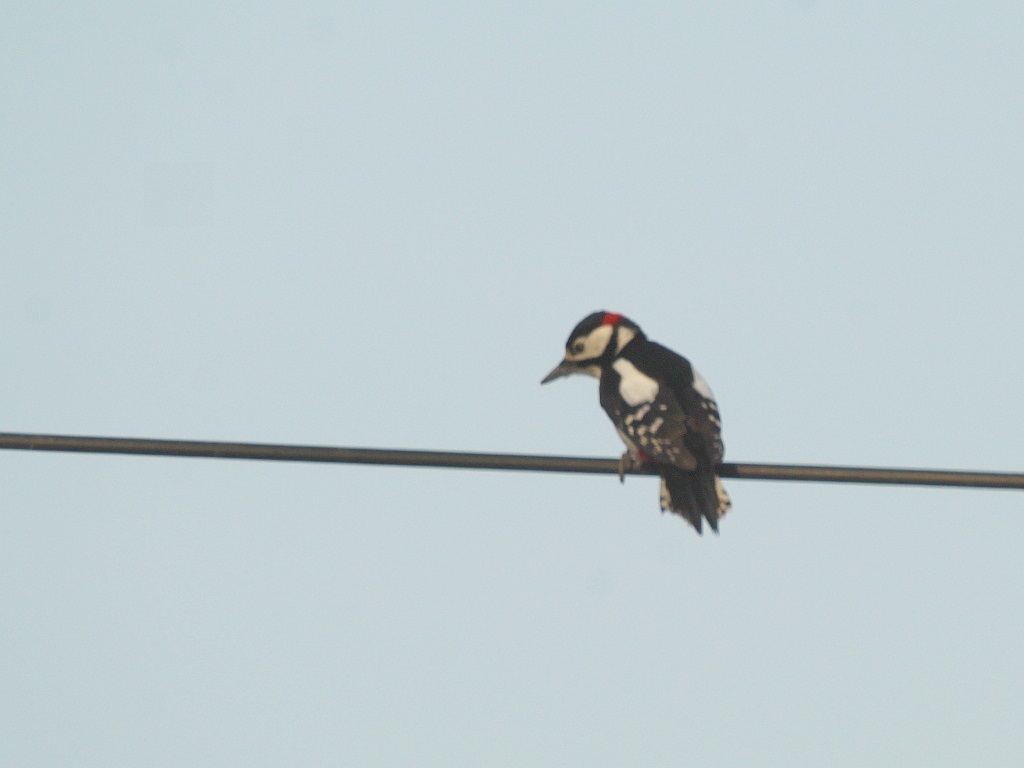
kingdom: Animalia
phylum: Chordata
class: Aves
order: Piciformes
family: Picidae
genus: Dendrocopos
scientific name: Dendrocopos major
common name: Great spotted woodpecker
